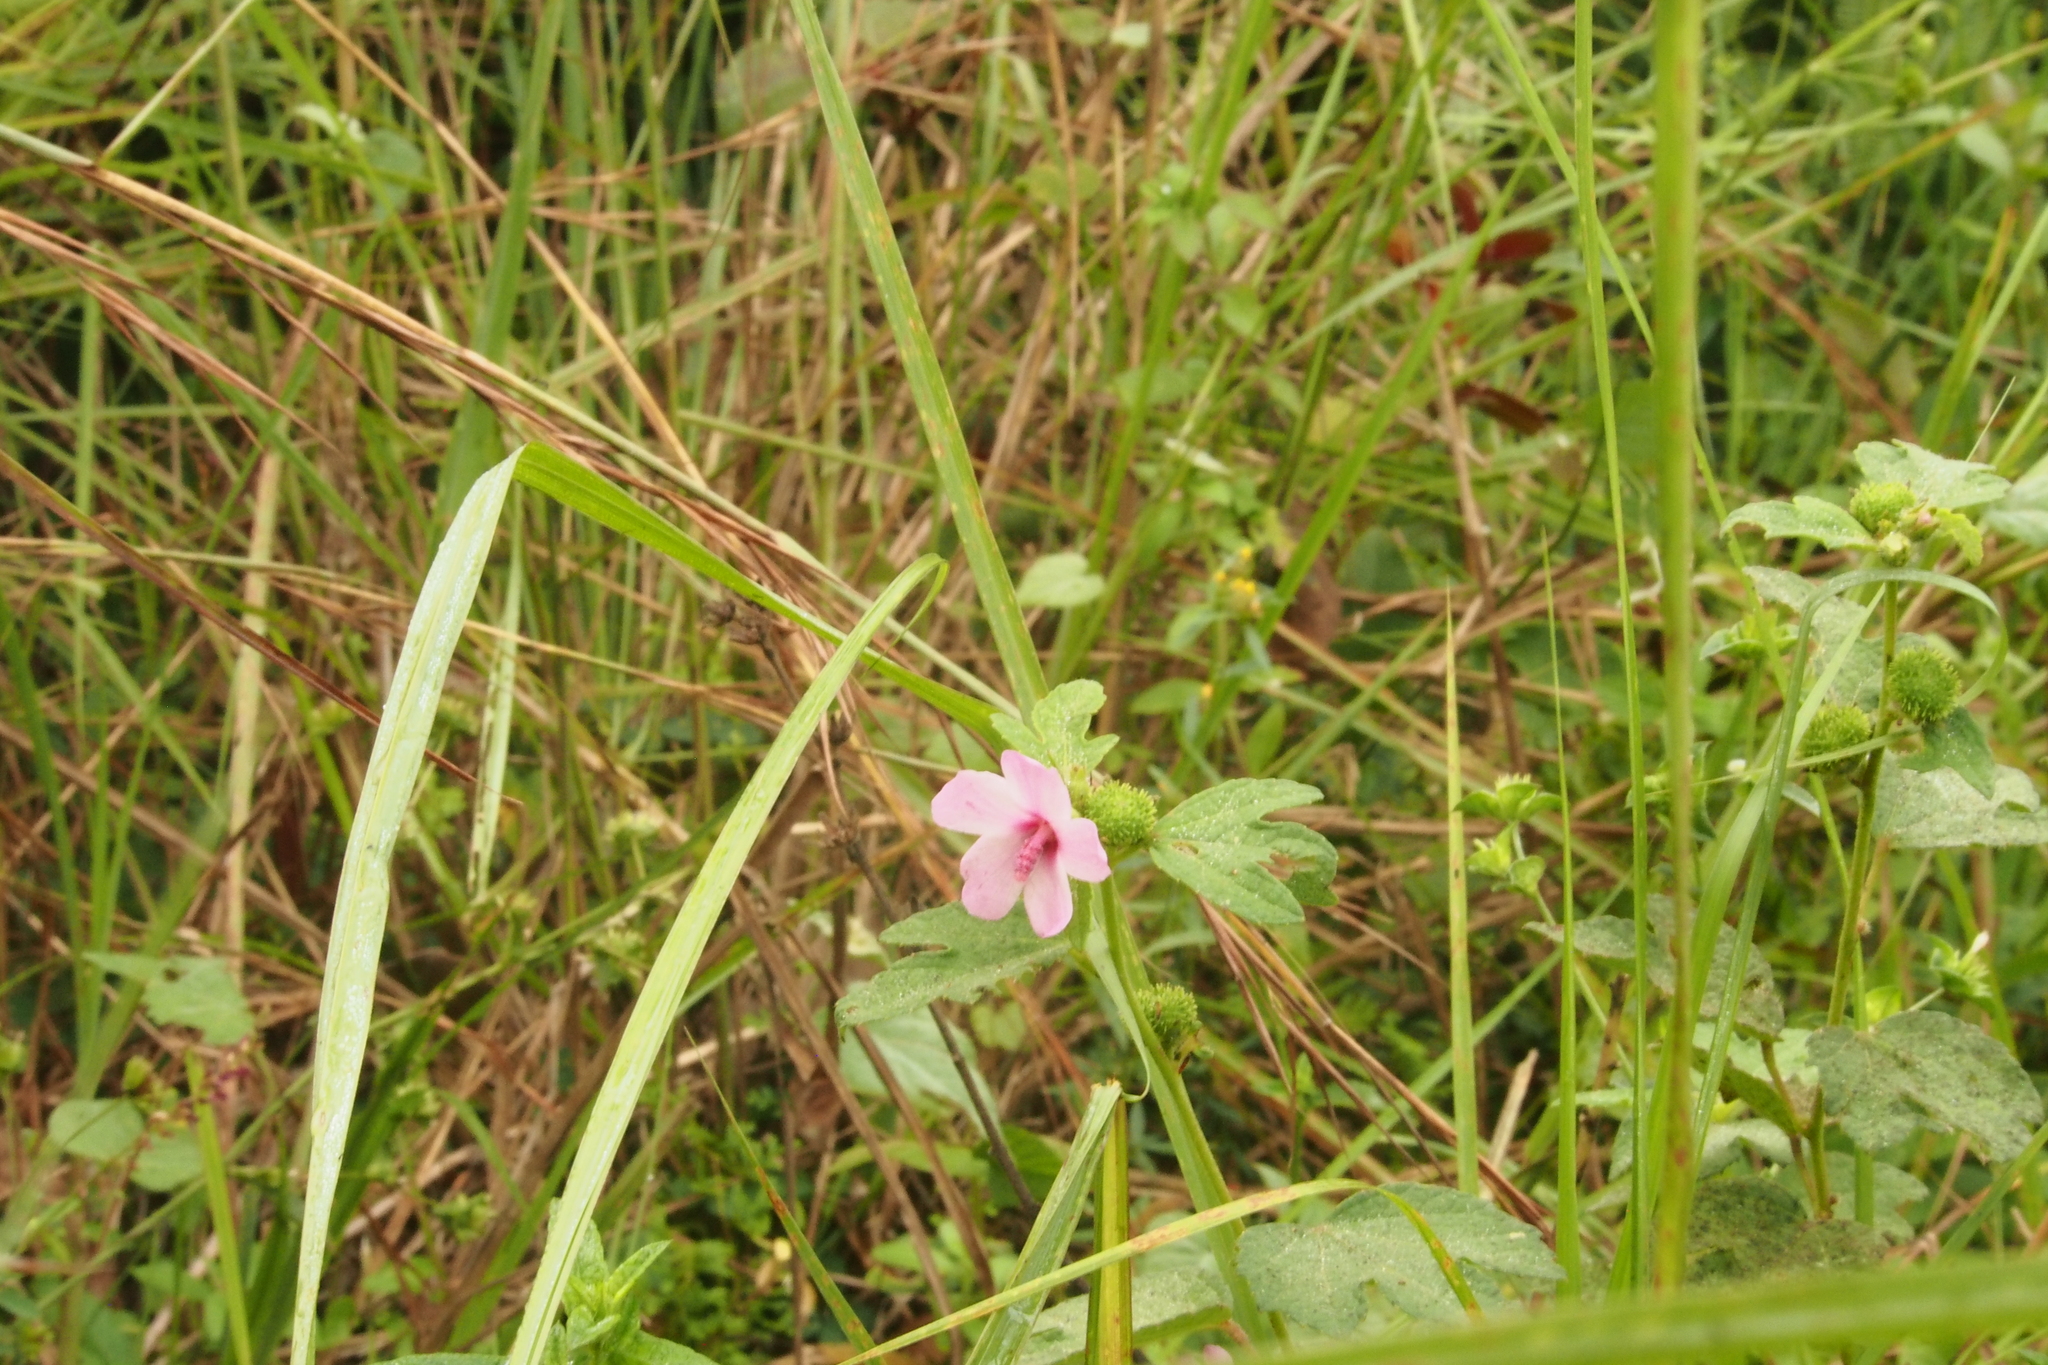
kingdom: Plantae
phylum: Tracheophyta
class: Magnoliopsida
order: Malvales
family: Malvaceae
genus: Urena
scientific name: Urena lobata
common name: Caesarweed
